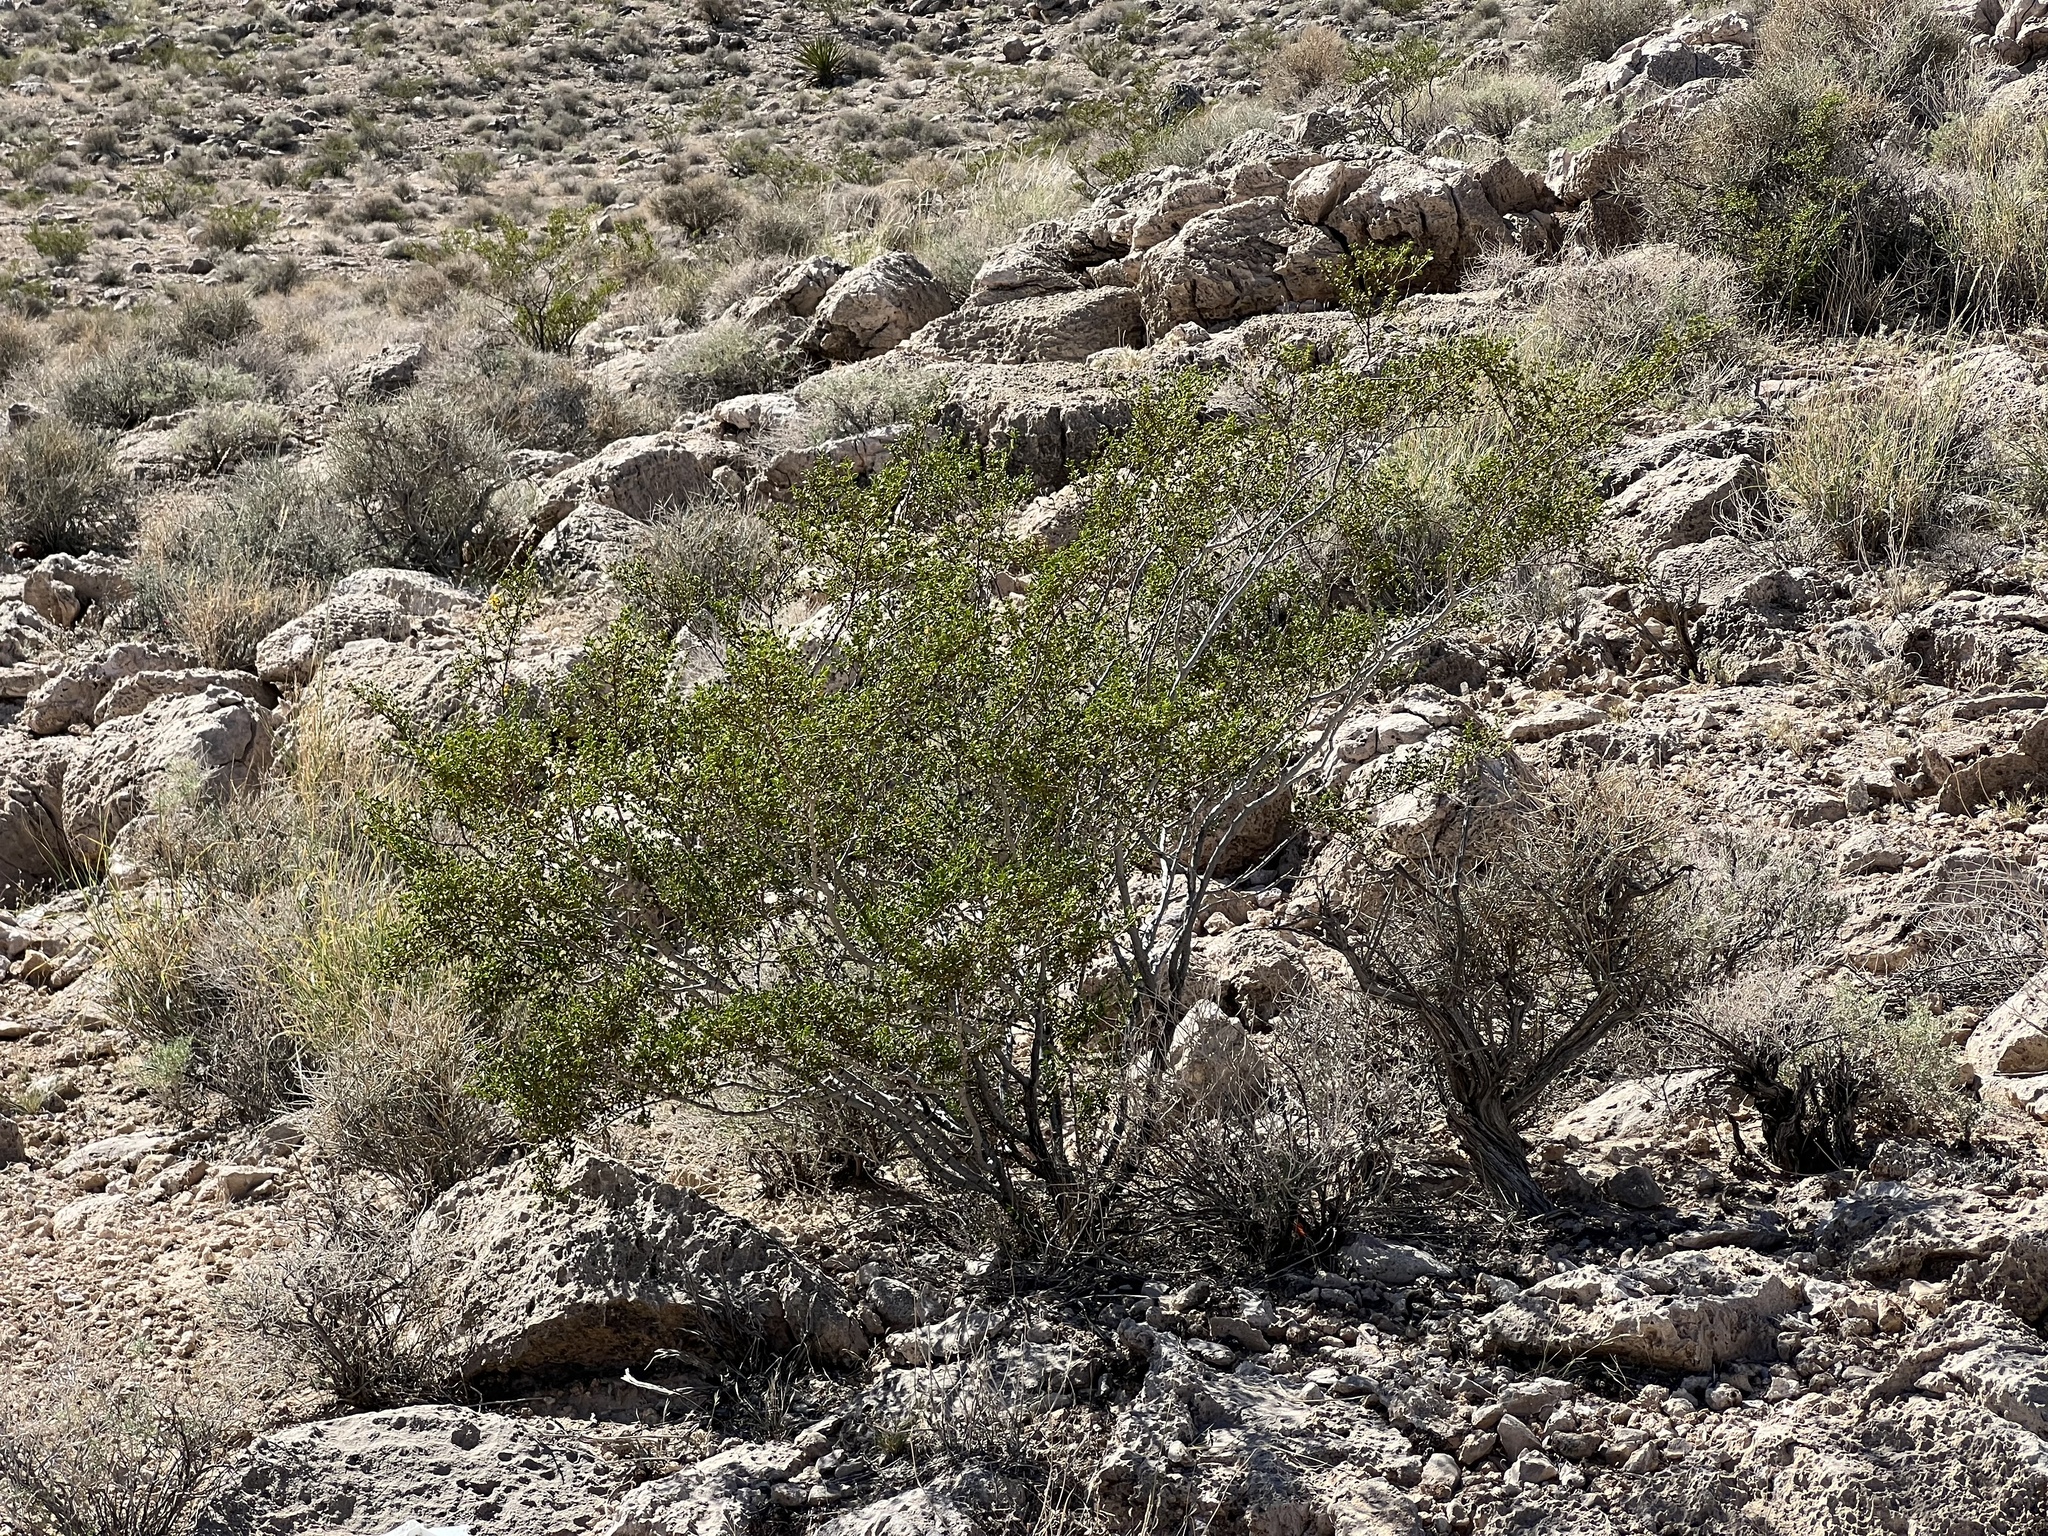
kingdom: Plantae
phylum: Tracheophyta
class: Magnoliopsida
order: Zygophyllales
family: Zygophyllaceae
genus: Larrea
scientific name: Larrea tridentata
